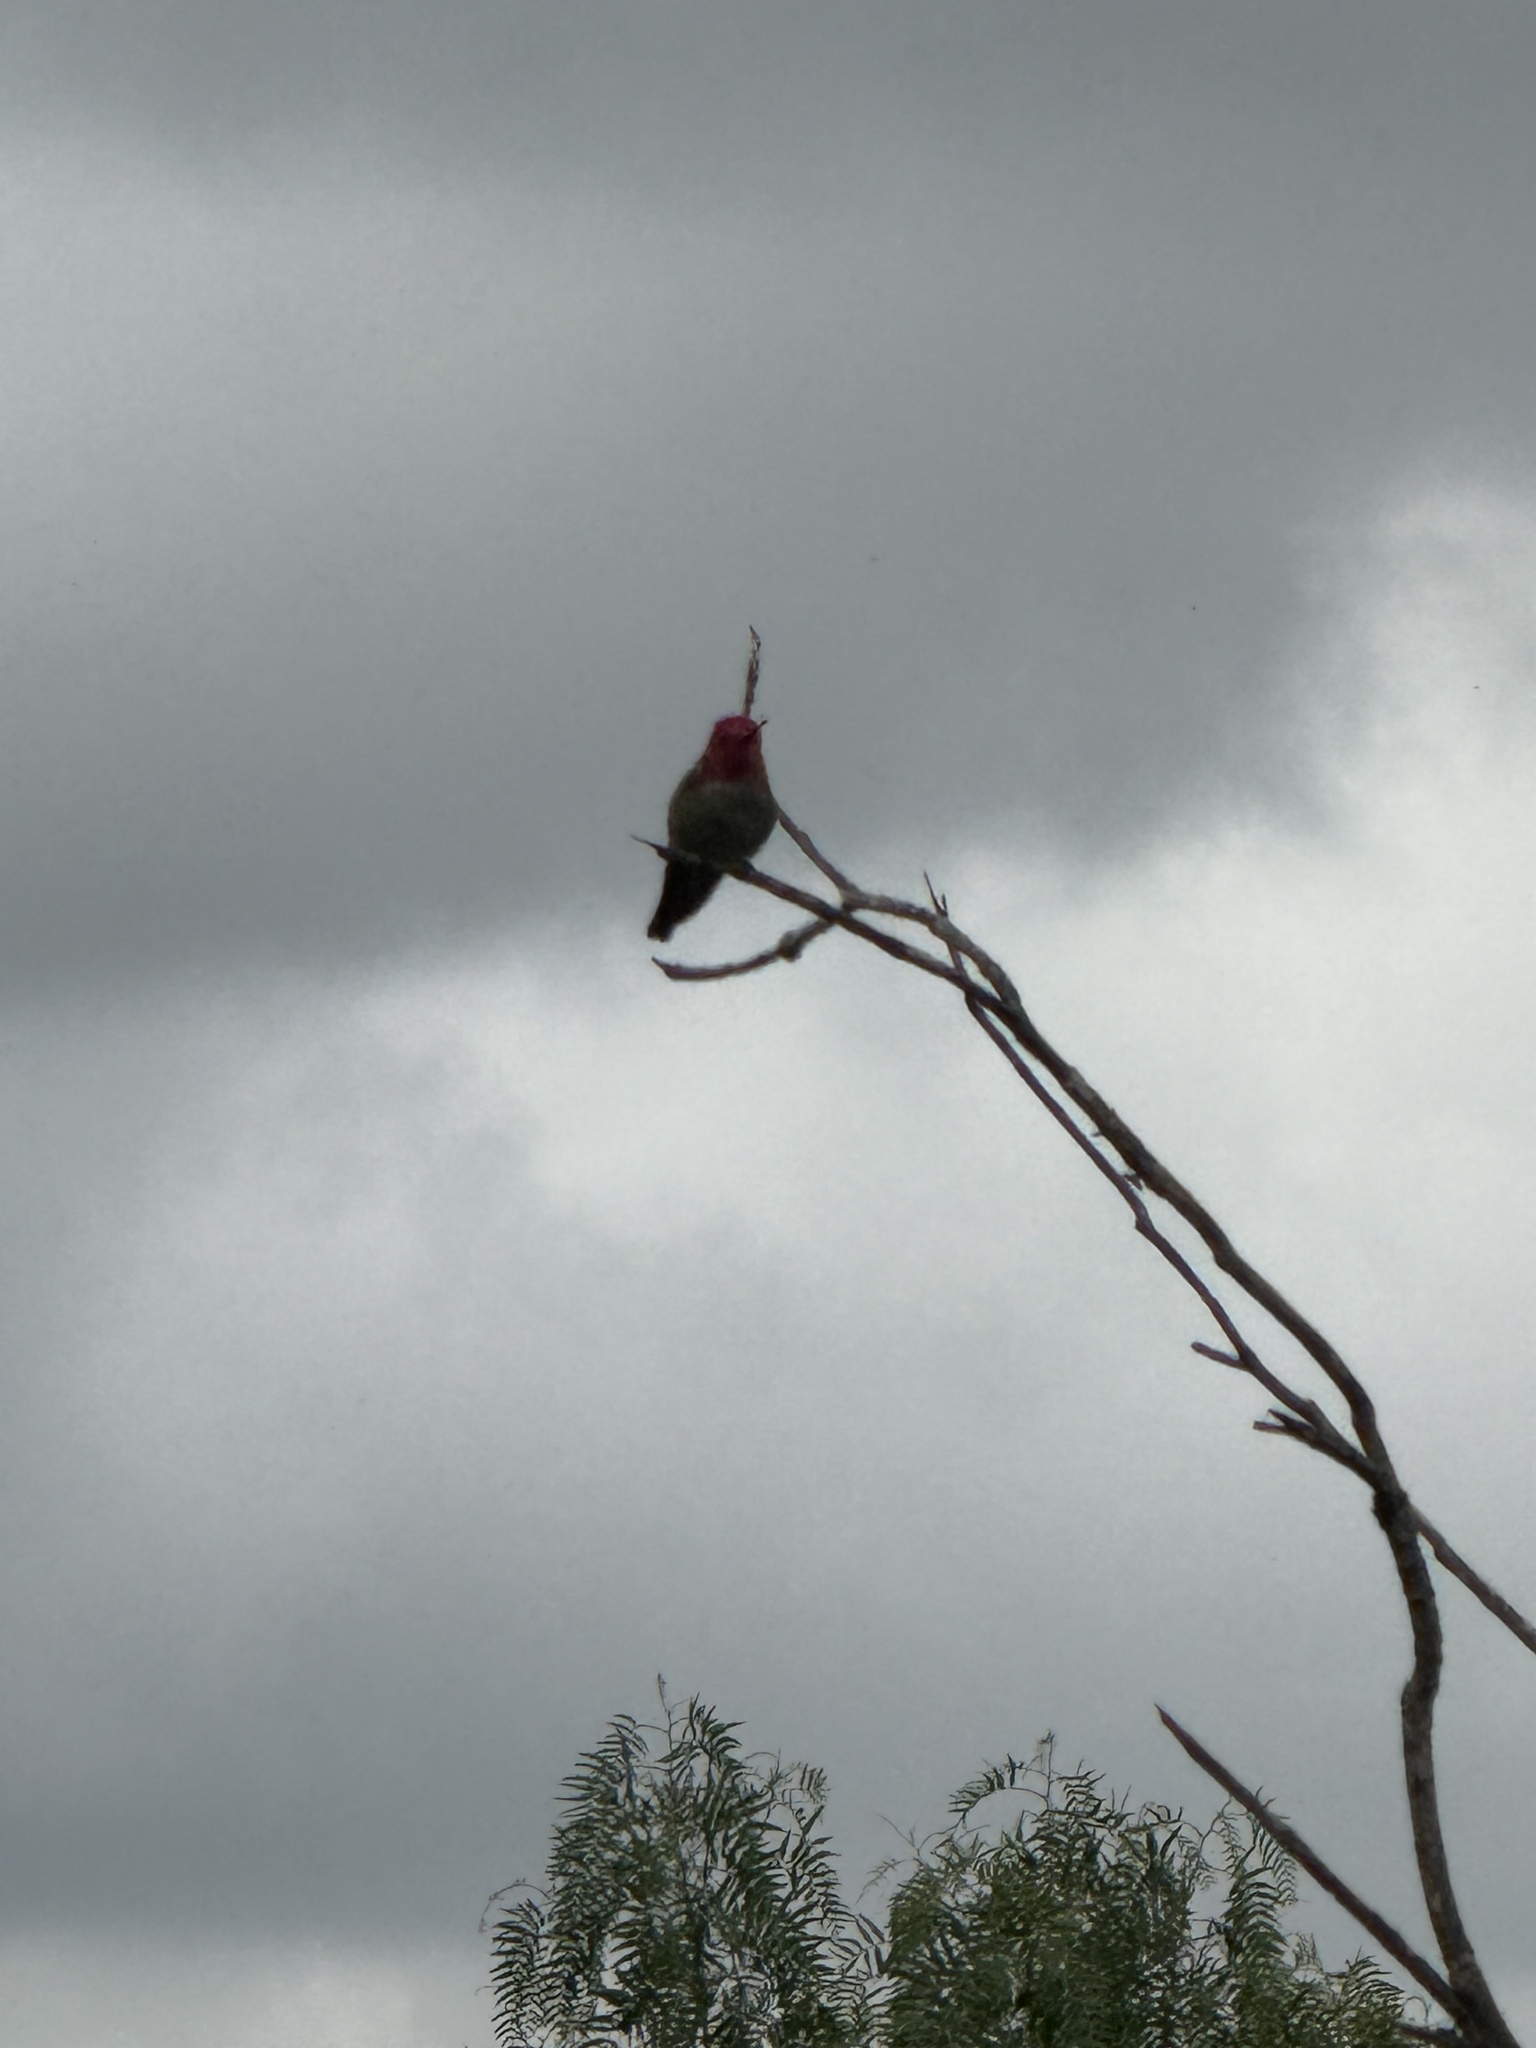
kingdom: Animalia
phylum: Chordata
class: Aves
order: Apodiformes
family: Trochilidae
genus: Calypte
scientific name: Calypte anna
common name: Anna's hummingbird
